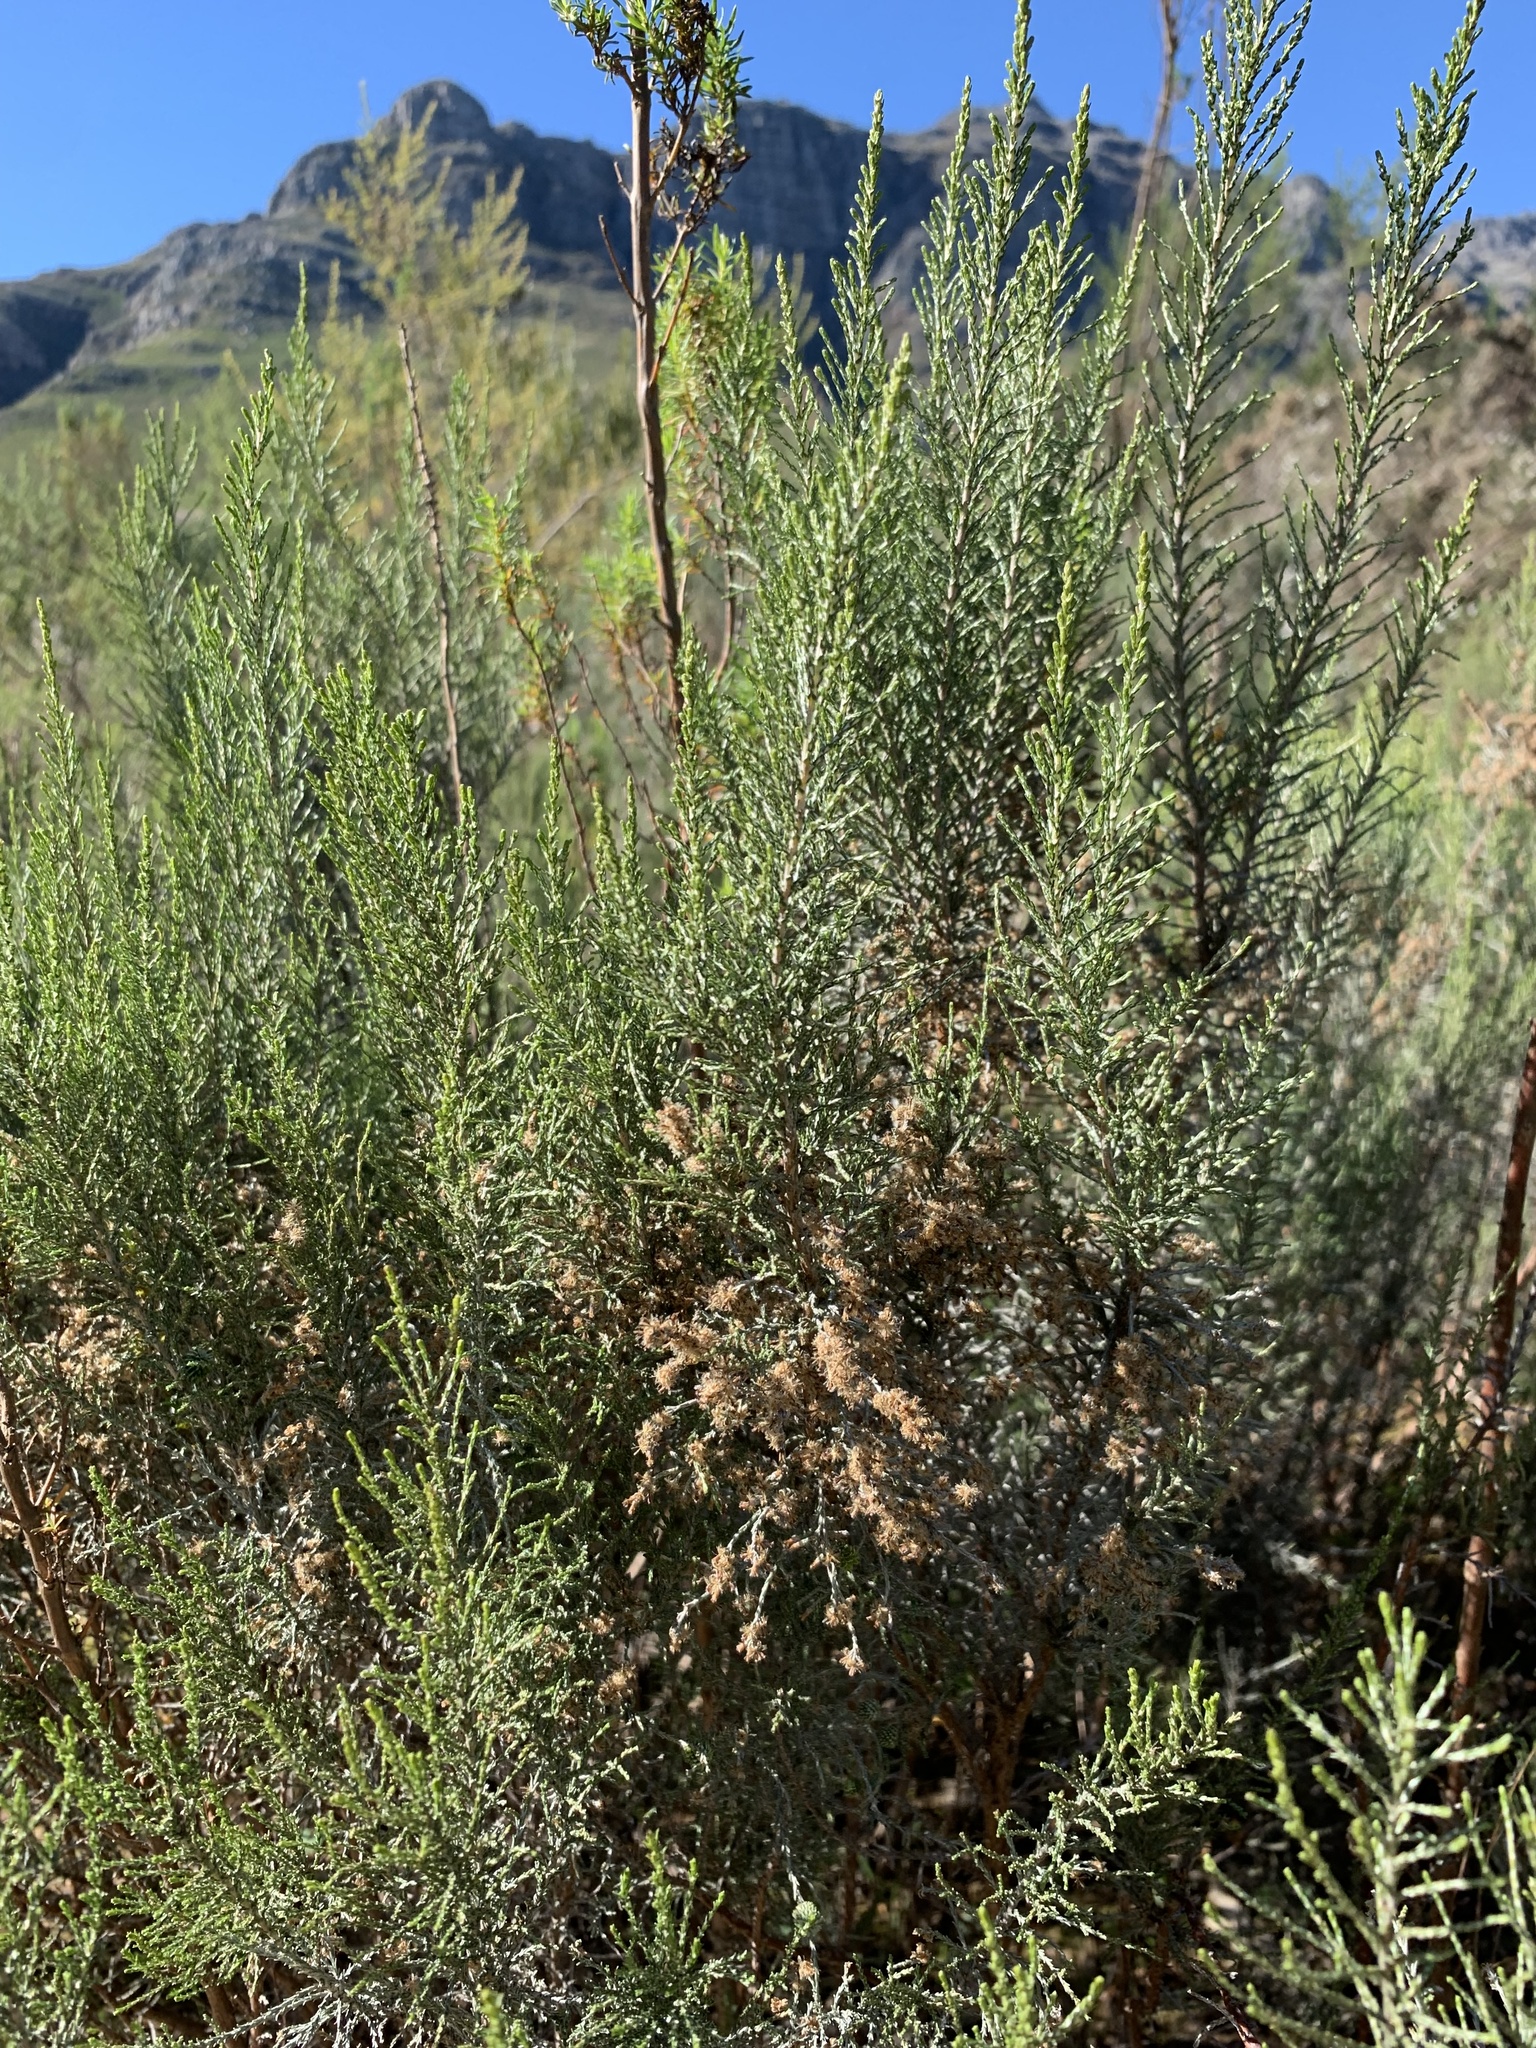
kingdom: Plantae
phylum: Tracheophyta
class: Magnoliopsida
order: Asterales
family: Asteraceae
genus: Dicerothamnus
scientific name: Dicerothamnus rhinocerotis
